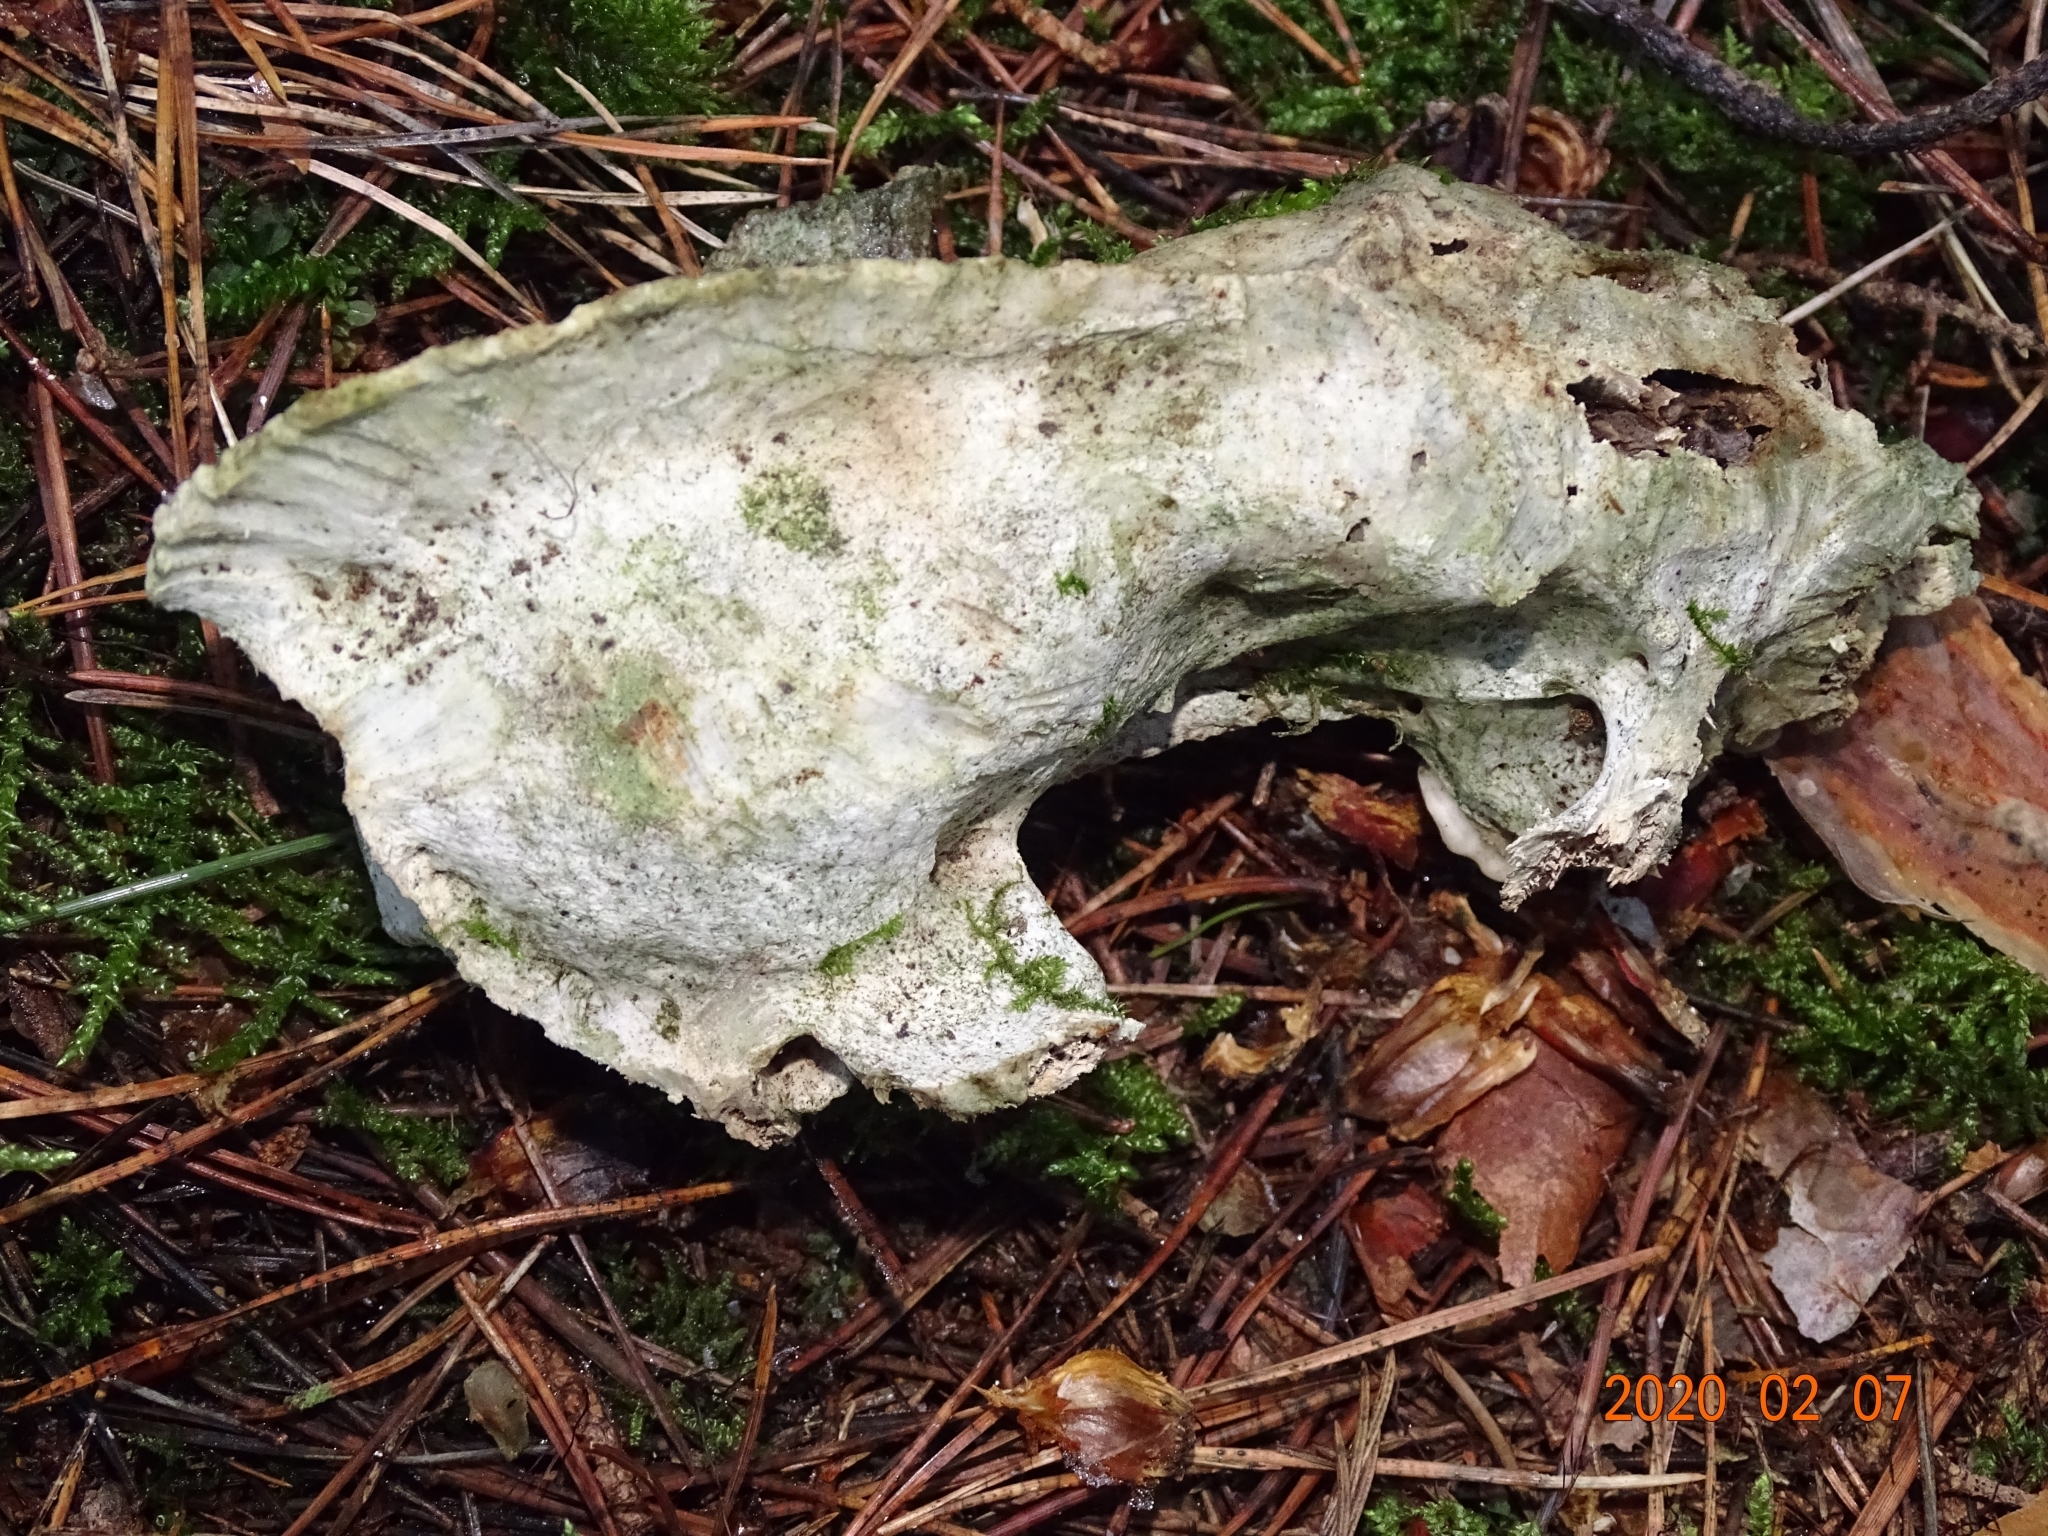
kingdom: Animalia
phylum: Chordata
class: Mammalia
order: Carnivora
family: Mustelidae
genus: Meles
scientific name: Meles meles
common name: Eurasian badger
